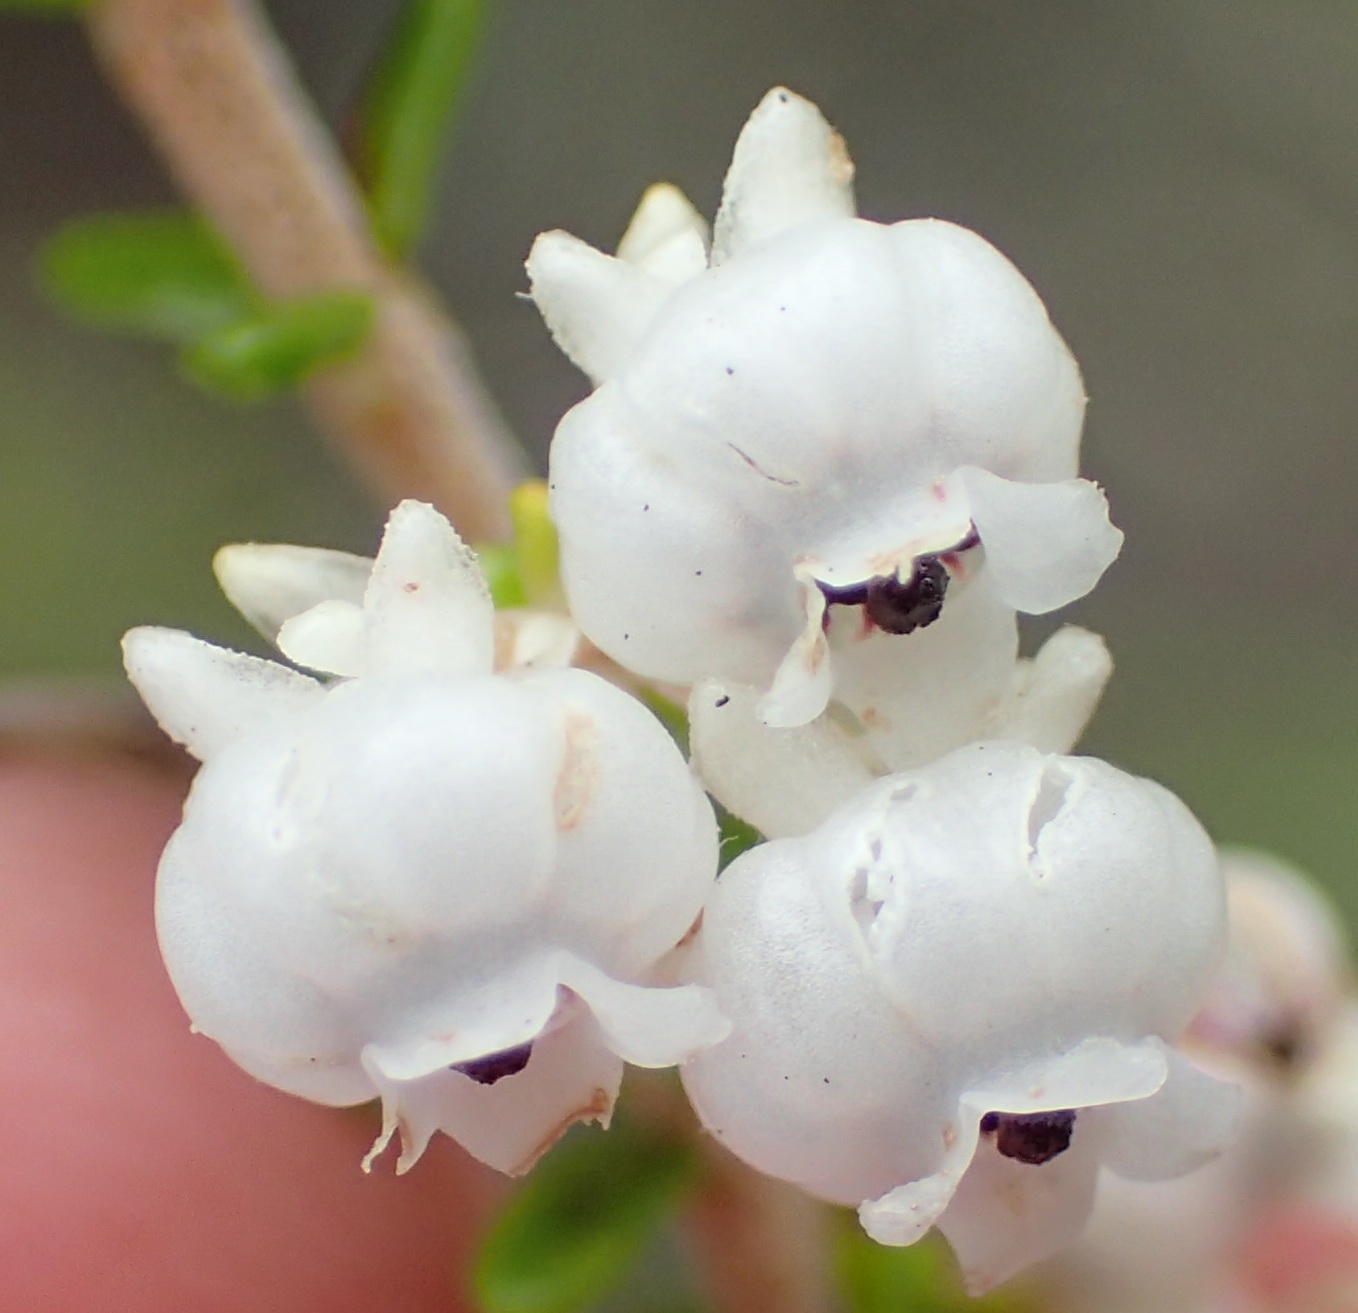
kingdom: Plantae
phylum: Tracheophyta
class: Magnoliopsida
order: Ericales
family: Ericaceae
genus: Erica
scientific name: Erica formosa
